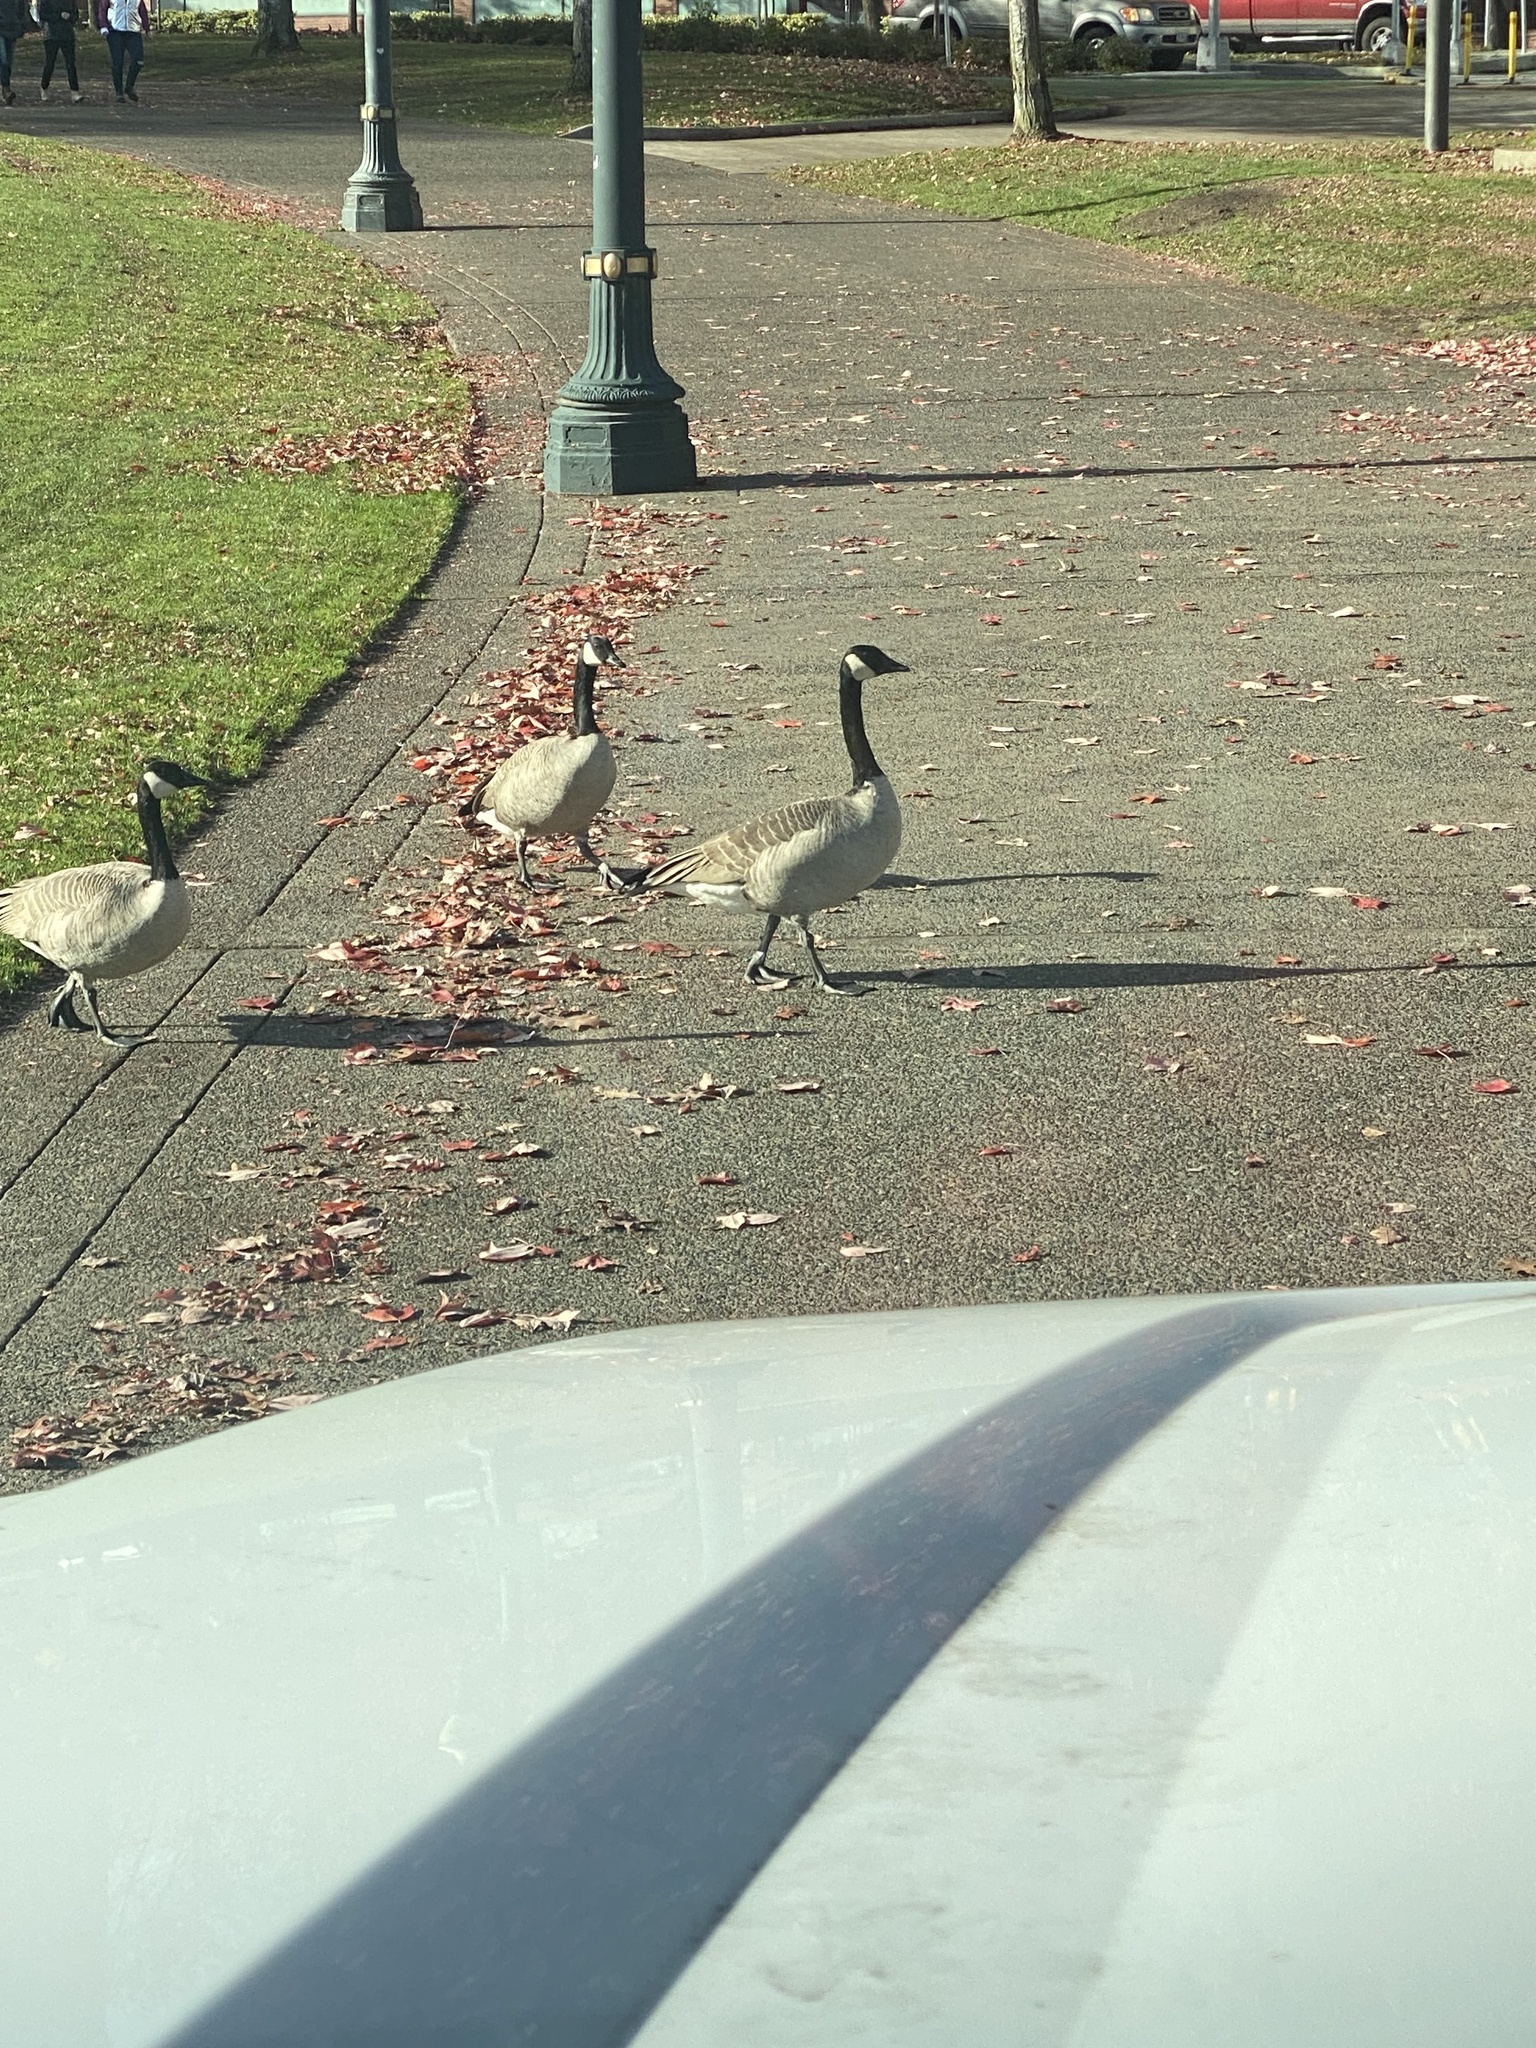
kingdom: Animalia
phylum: Chordata
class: Aves
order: Anseriformes
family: Anatidae
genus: Branta
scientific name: Branta canadensis
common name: Canada goose
